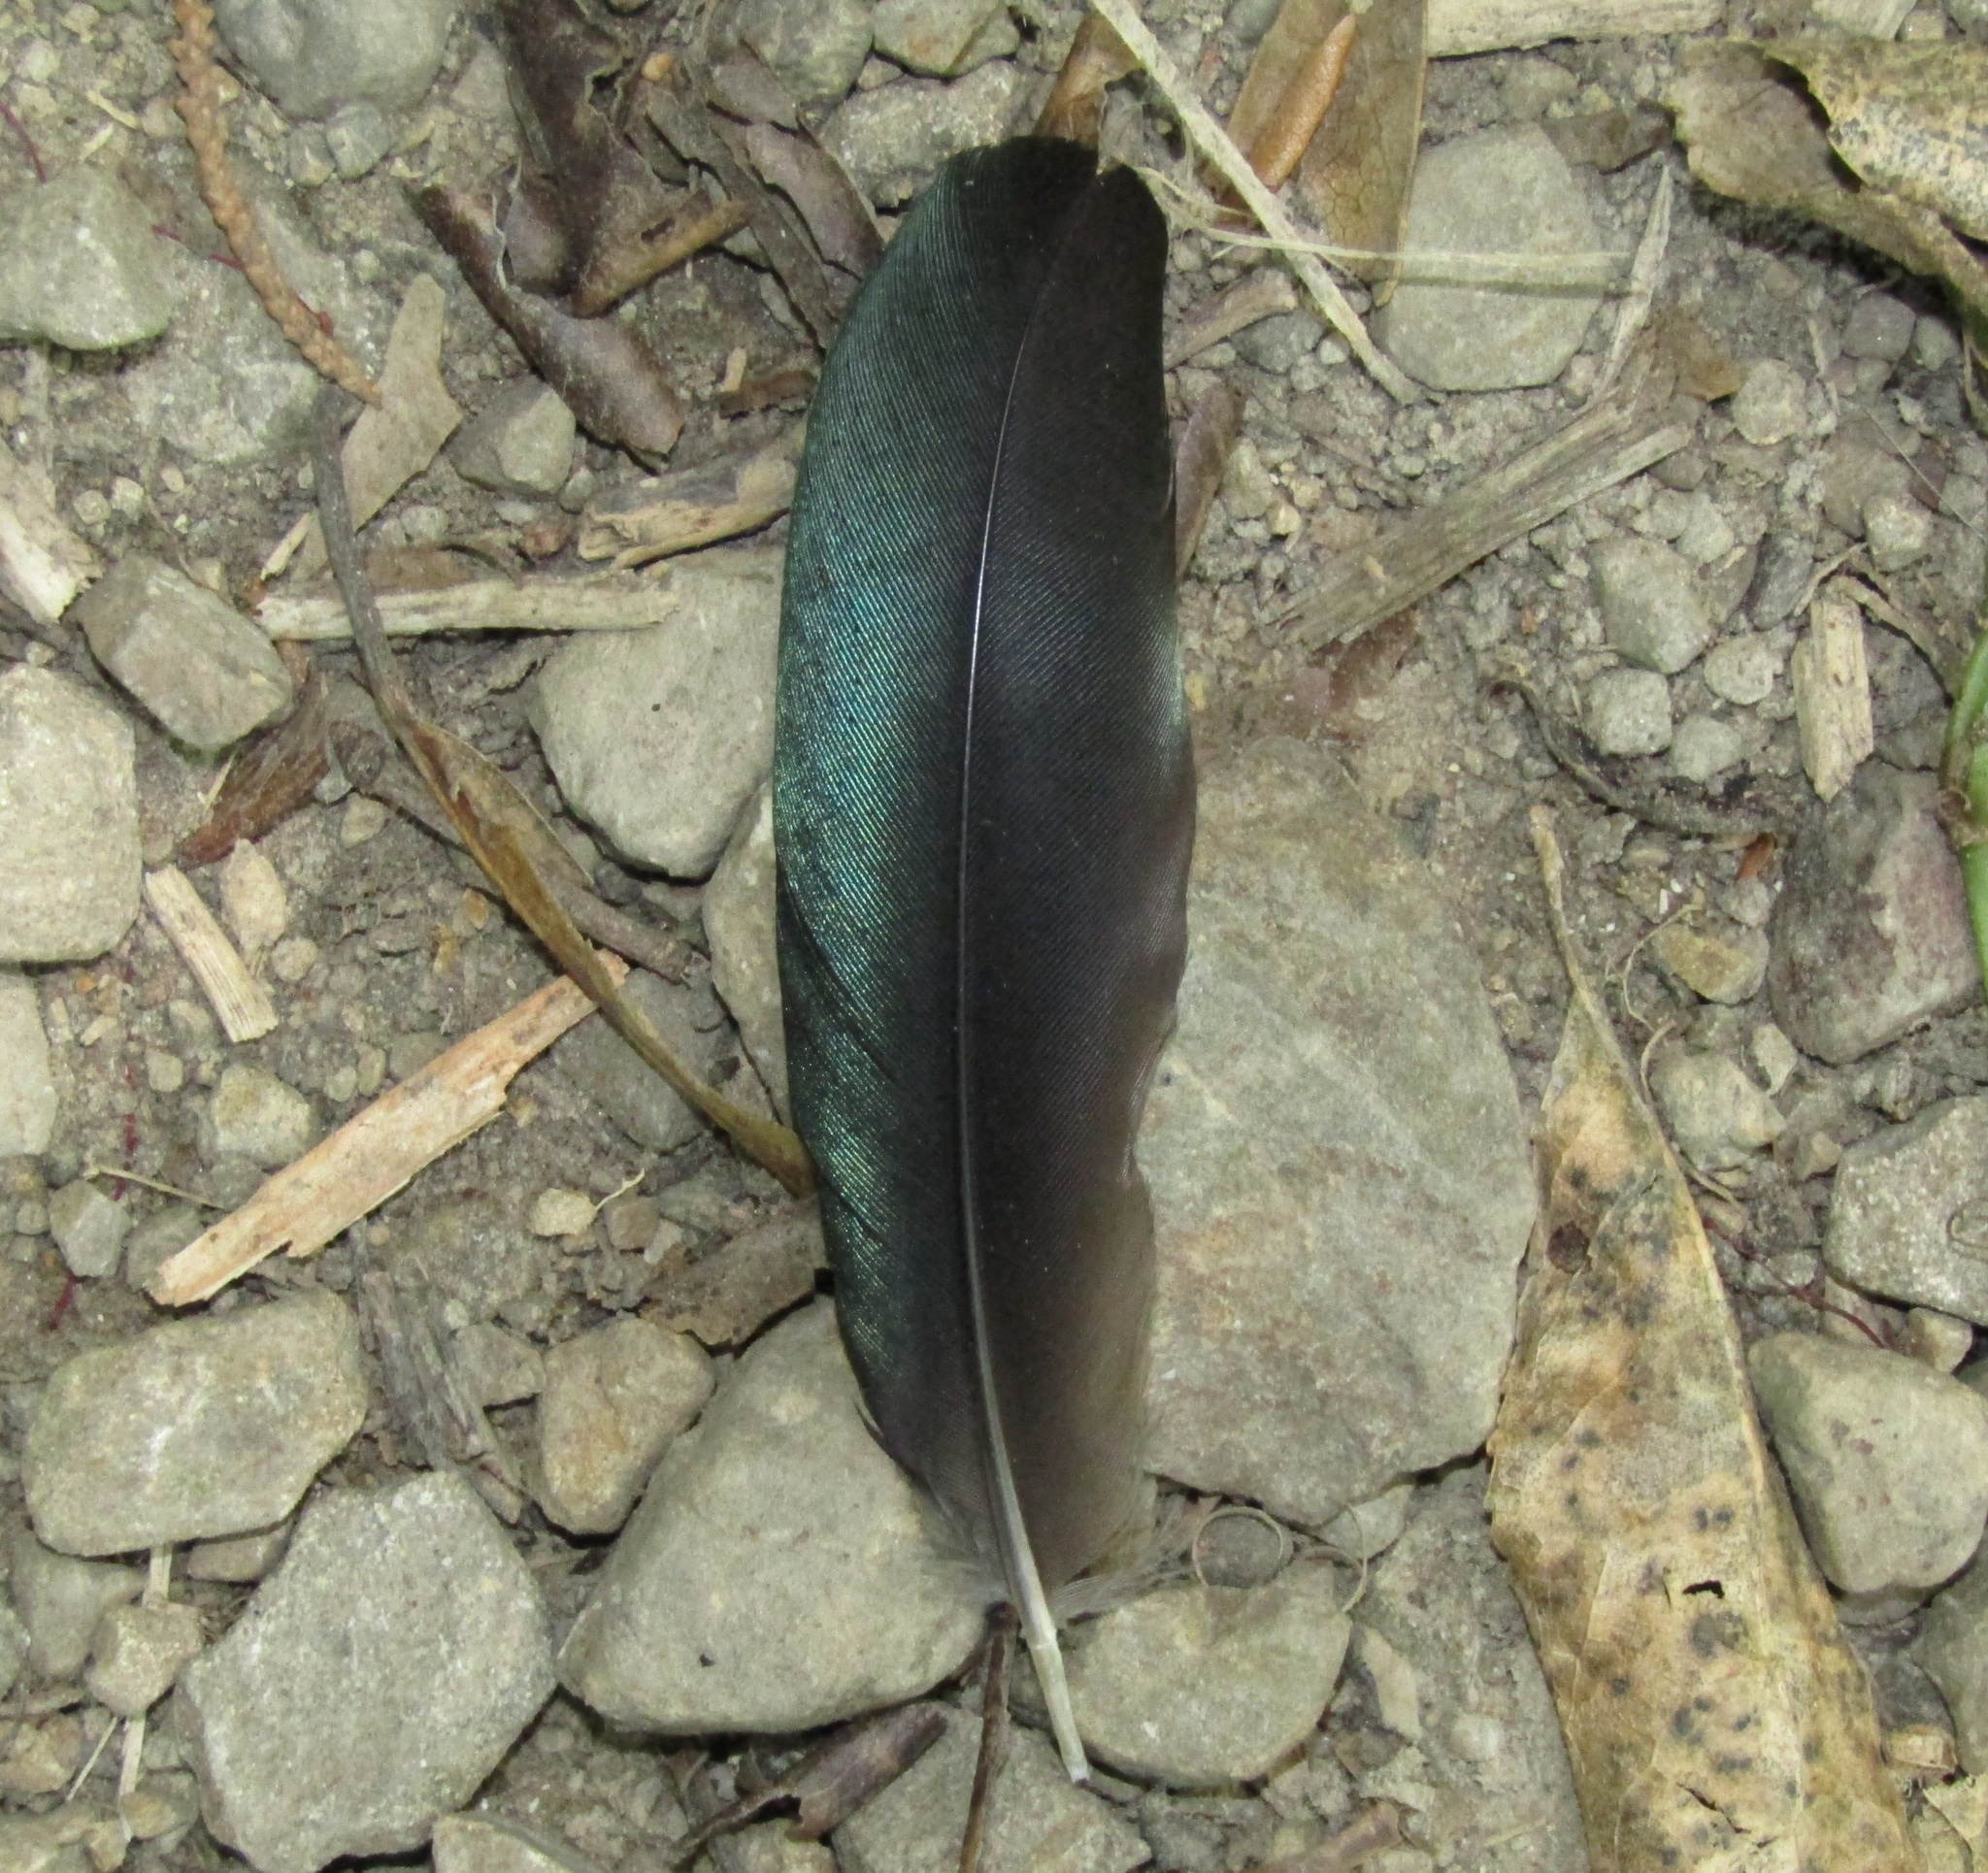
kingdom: Animalia
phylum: Chordata
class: Aves
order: Passeriformes
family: Meliphagidae
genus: Prosthemadera
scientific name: Prosthemadera novaeseelandiae
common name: Tui
